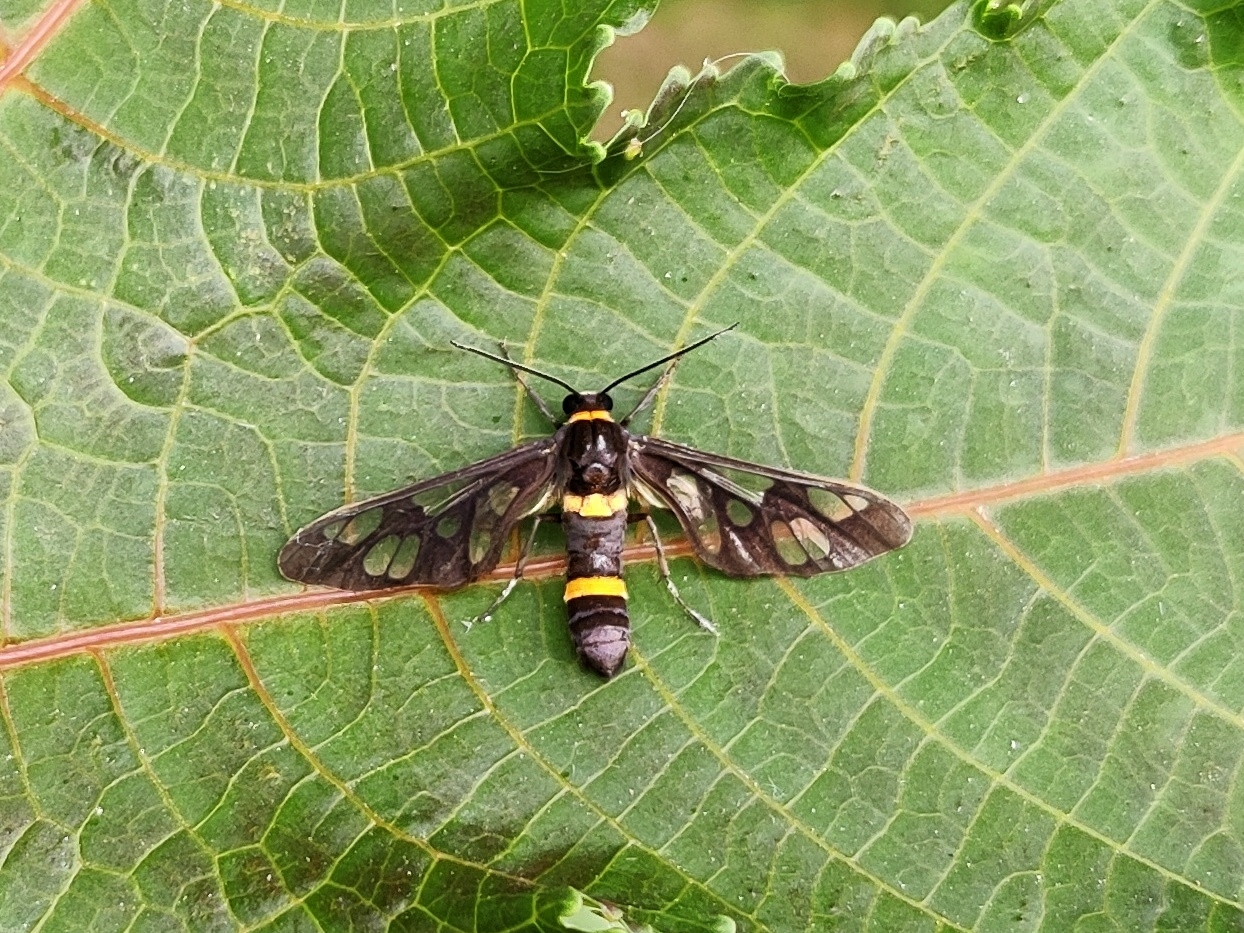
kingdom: Animalia
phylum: Arthropoda
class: Insecta
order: Lepidoptera
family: Erebidae
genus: Syntomoides
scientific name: Syntomoides imaon
